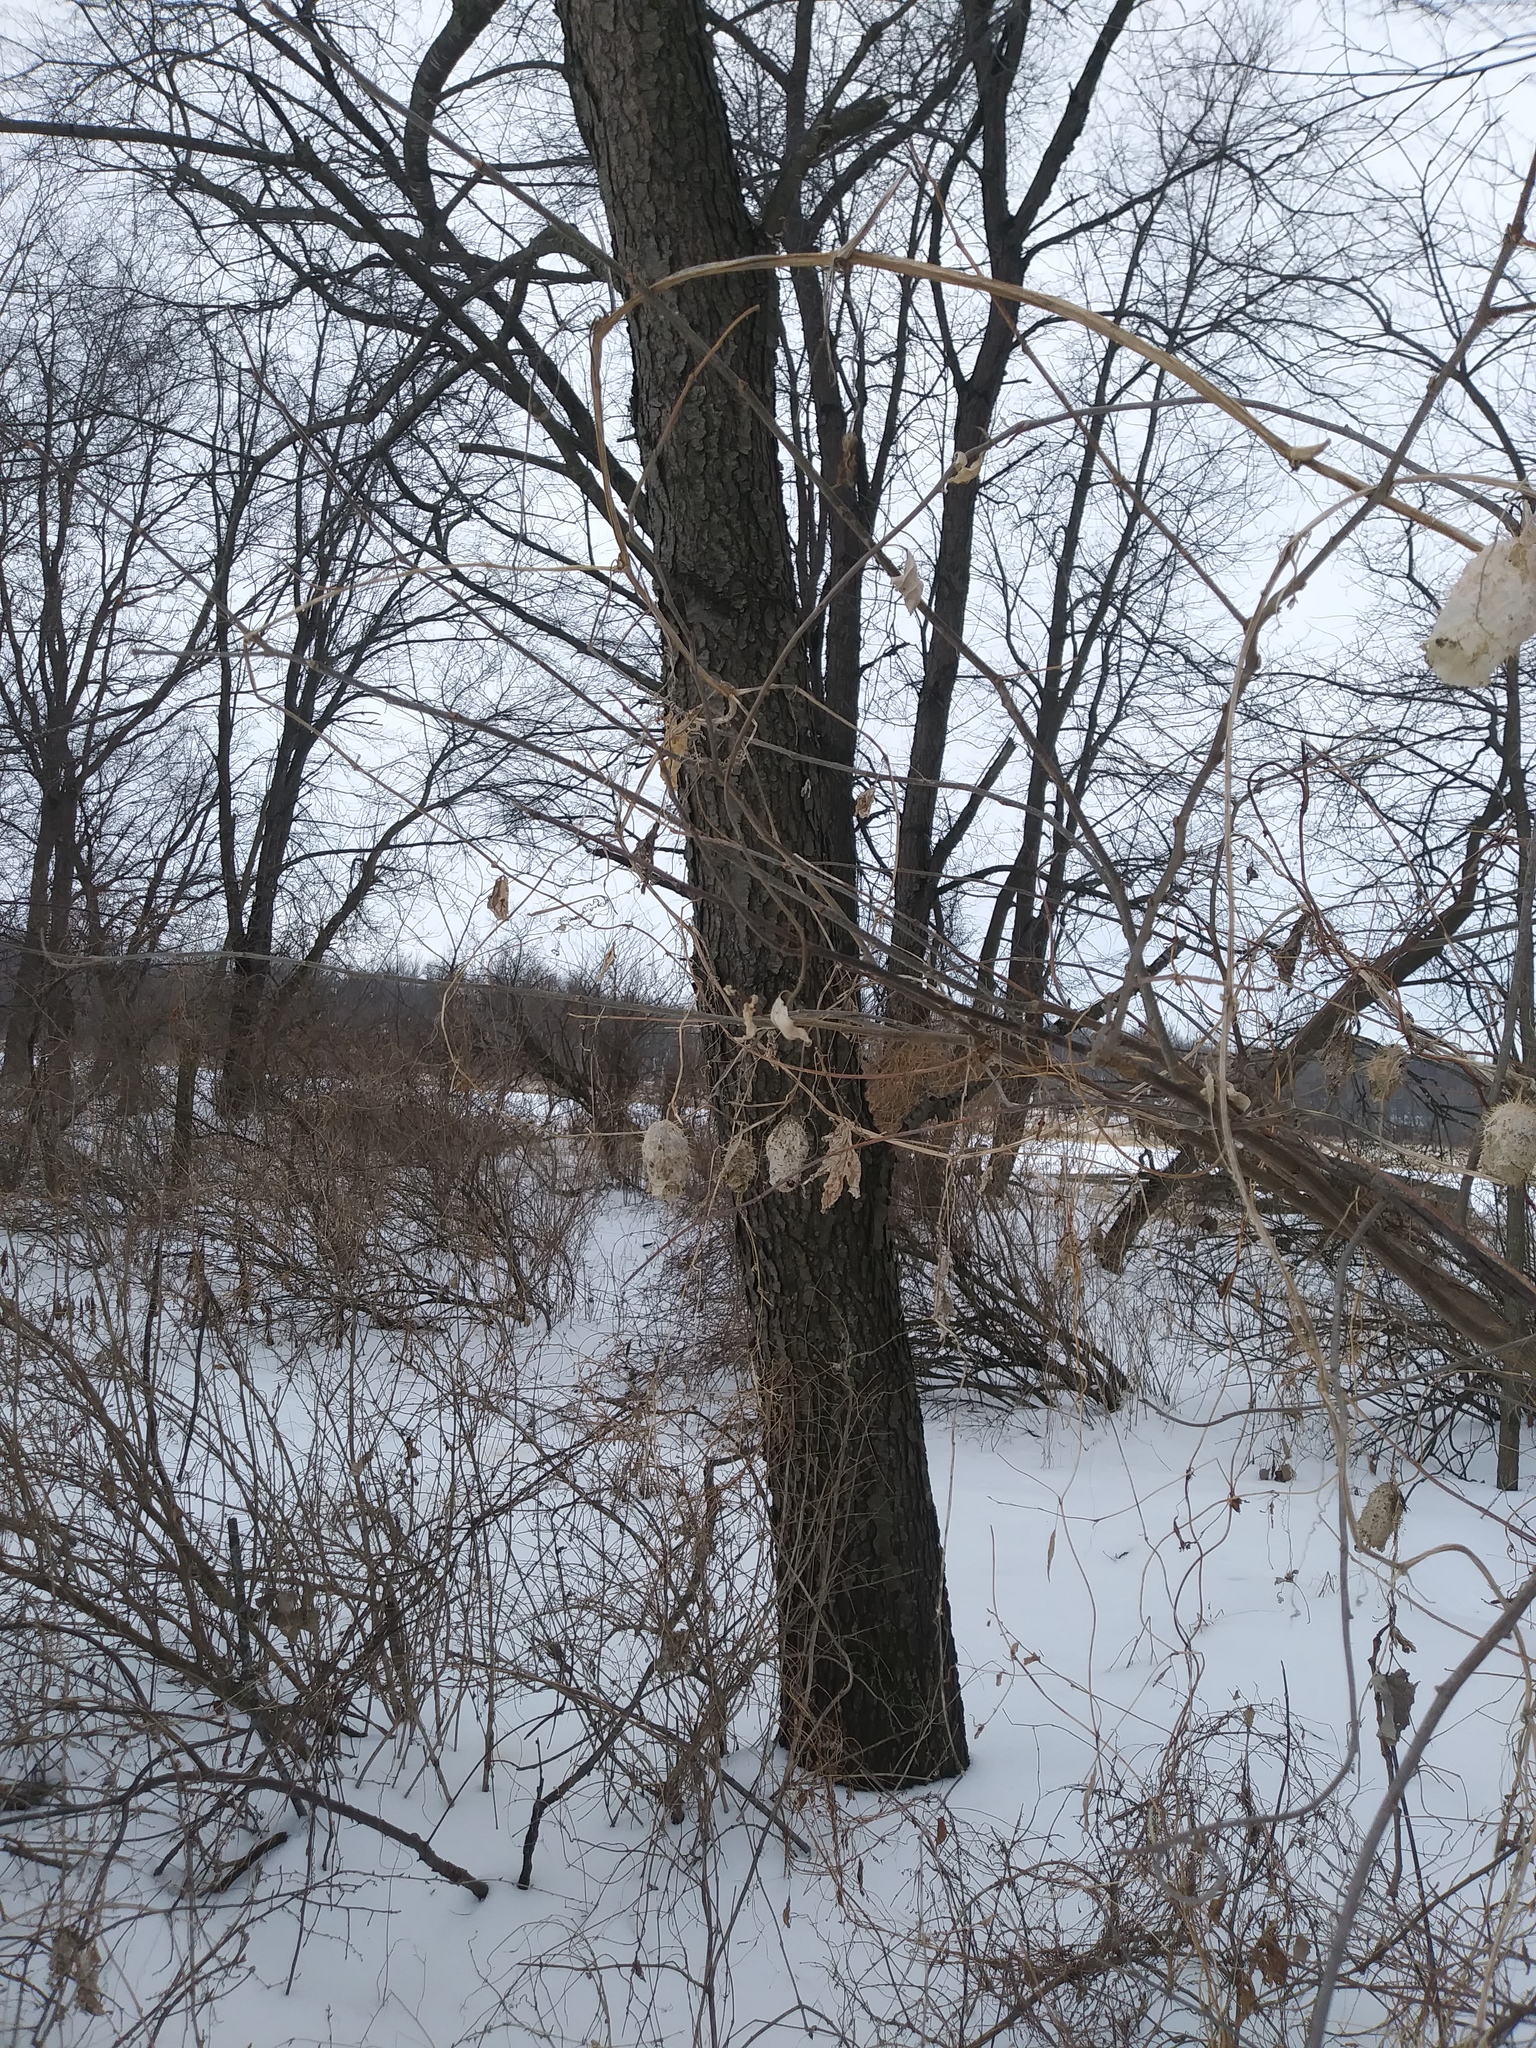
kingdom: Plantae
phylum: Tracheophyta
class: Magnoliopsida
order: Cucurbitales
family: Cucurbitaceae
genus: Echinocystis
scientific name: Echinocystis lobata
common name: Wild cucumber
